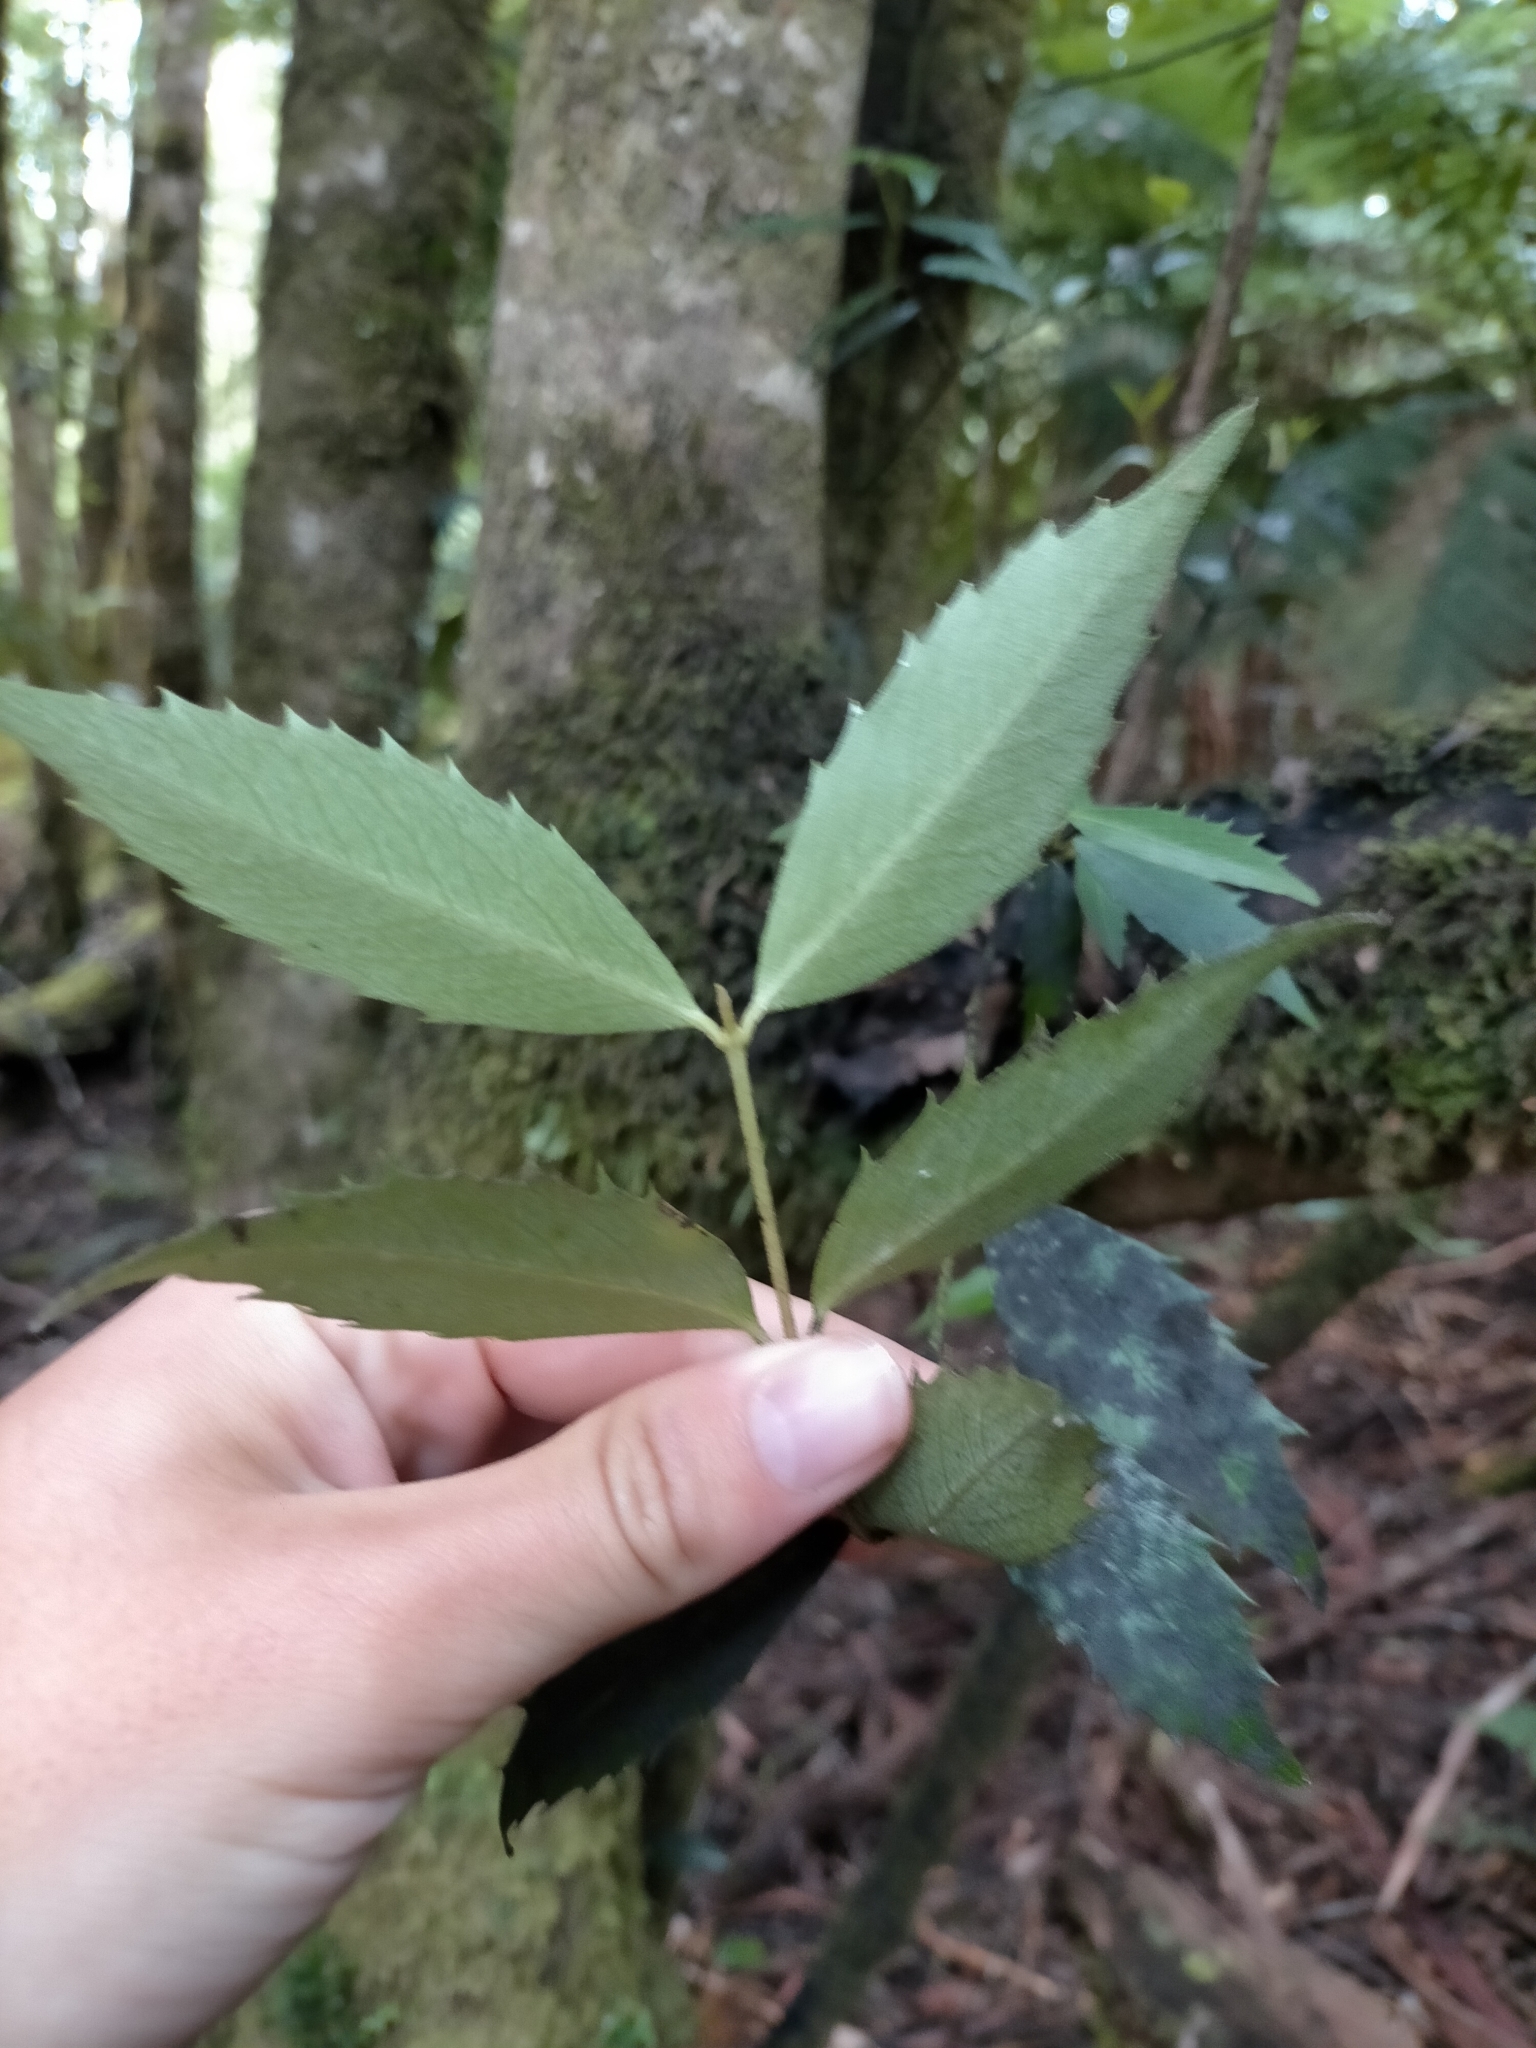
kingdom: Plantae
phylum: Tracheophyta
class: Magnoliopsida
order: Laurales
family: Atherospermataceae
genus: Atherosperma
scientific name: Atherosperma moschatum
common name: Tasmanian-sassafras
